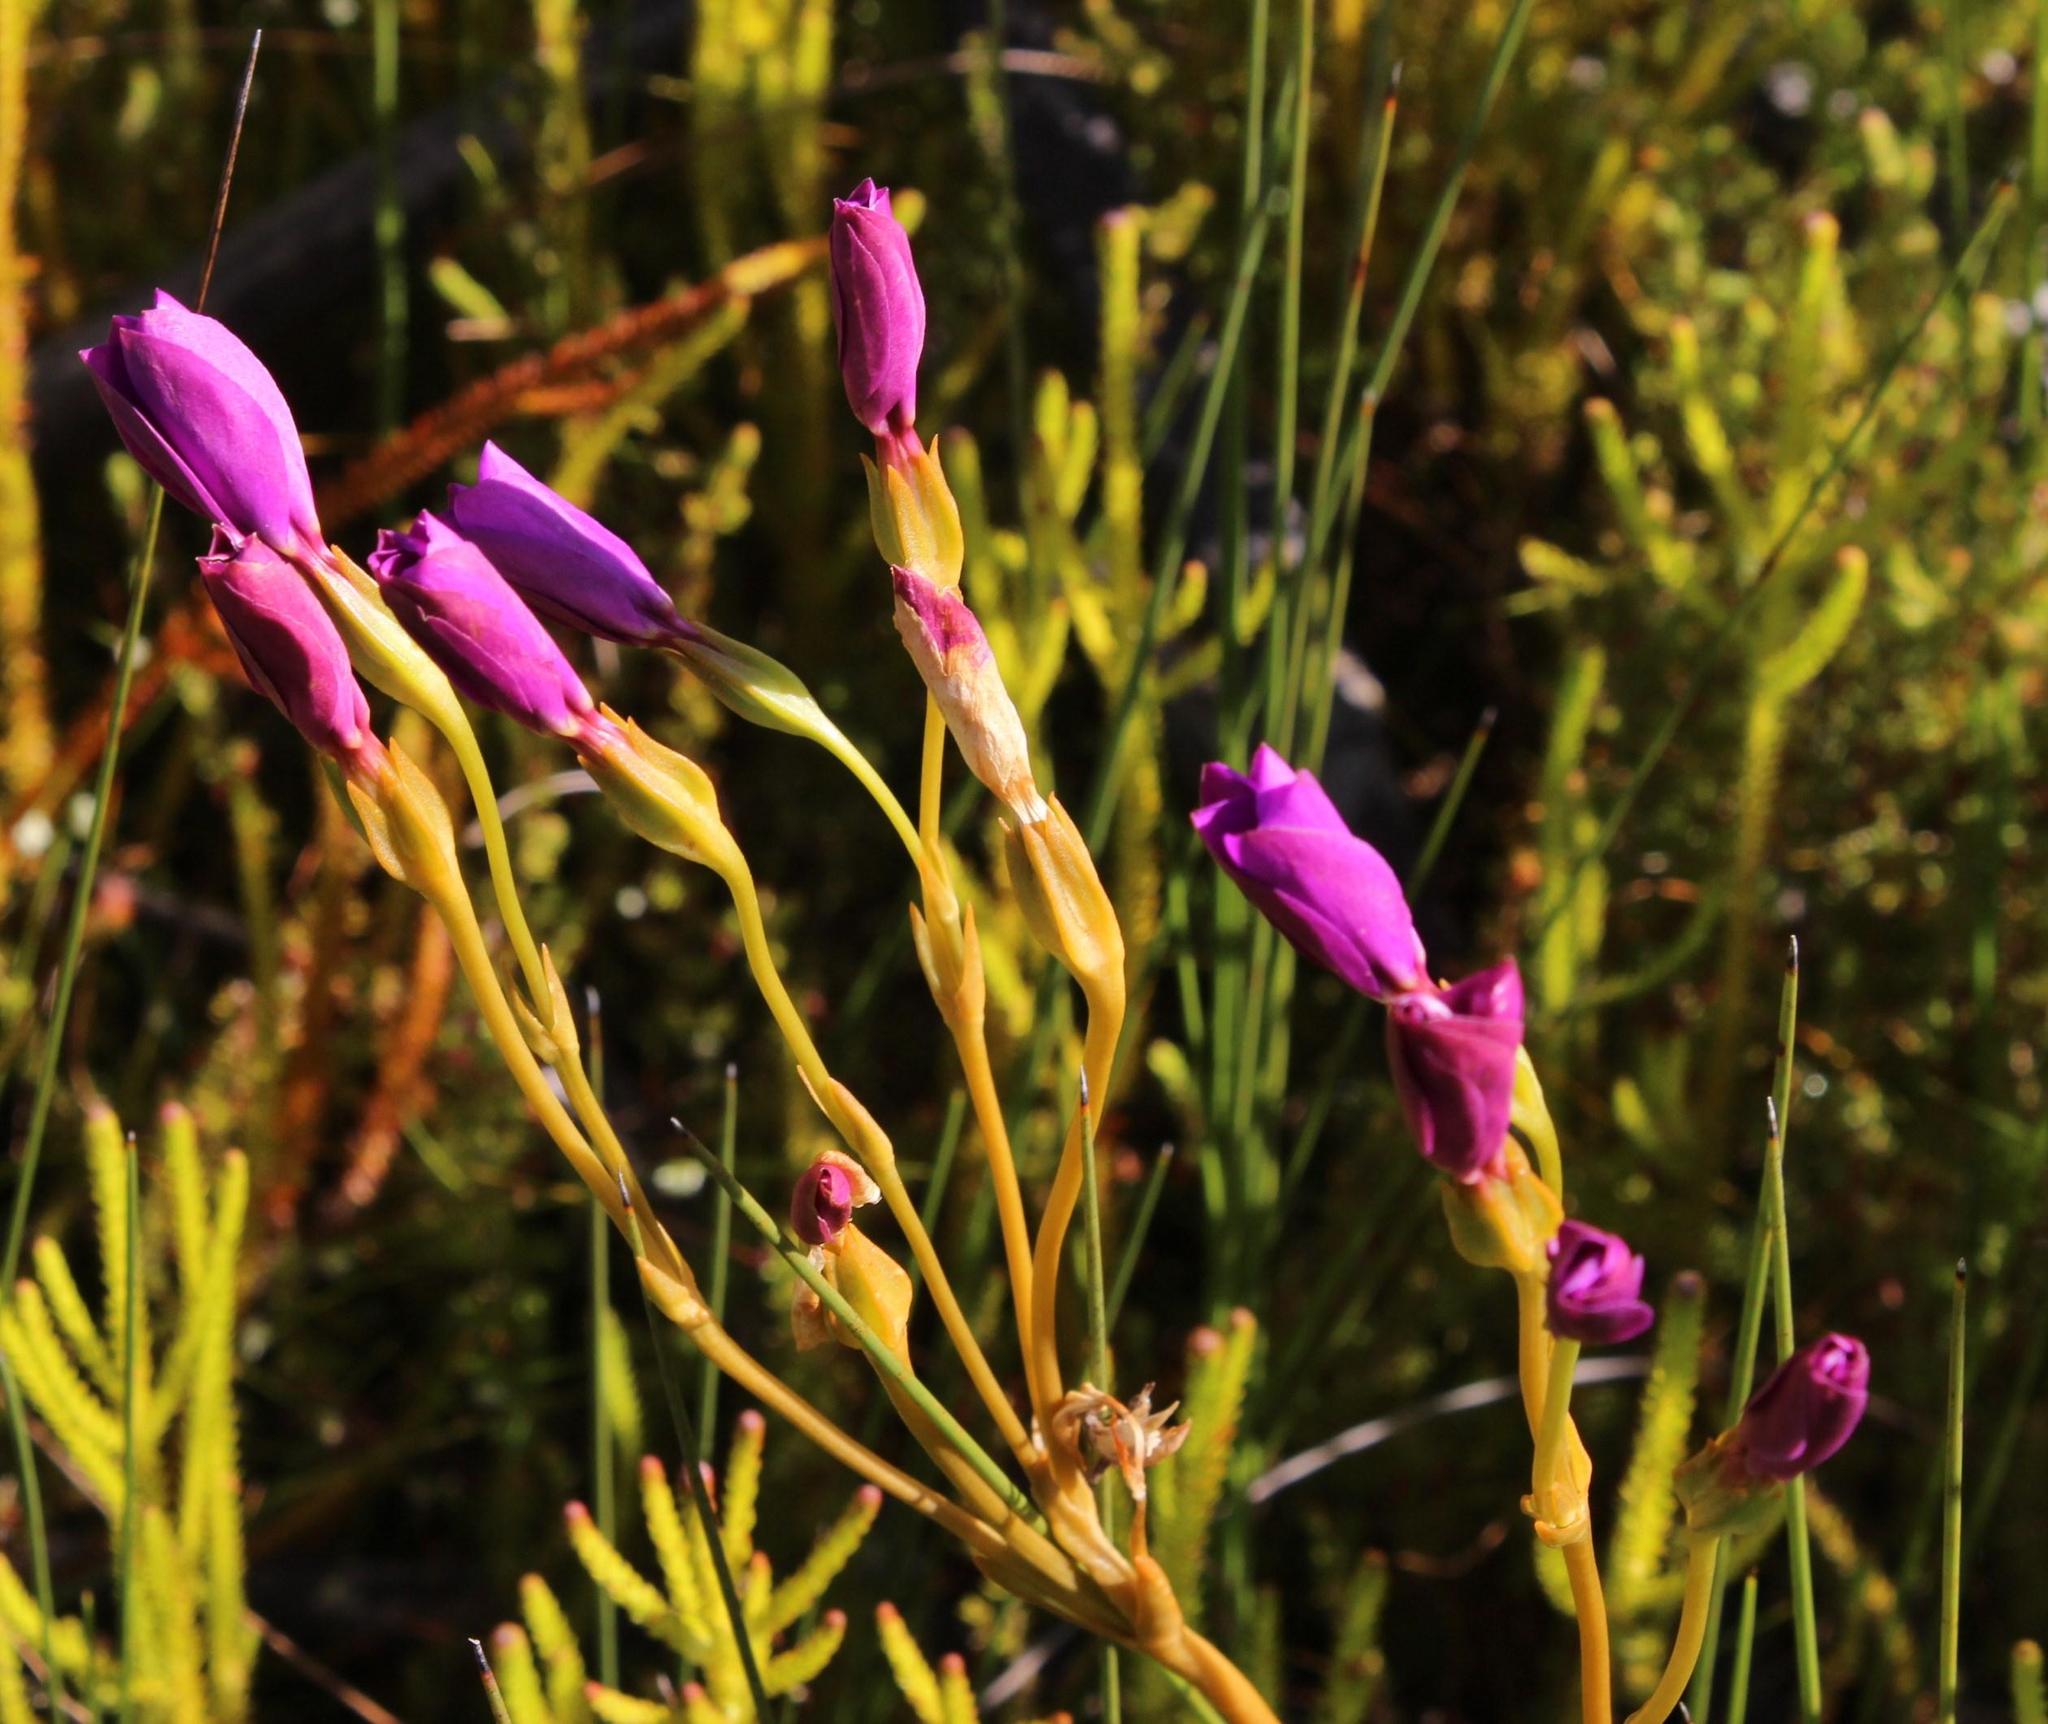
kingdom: Plantae
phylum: Tracheophyta
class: Magnoliopsida
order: Gentianales
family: Gentianaceae
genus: Chironia
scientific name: Chironia jasminoides
